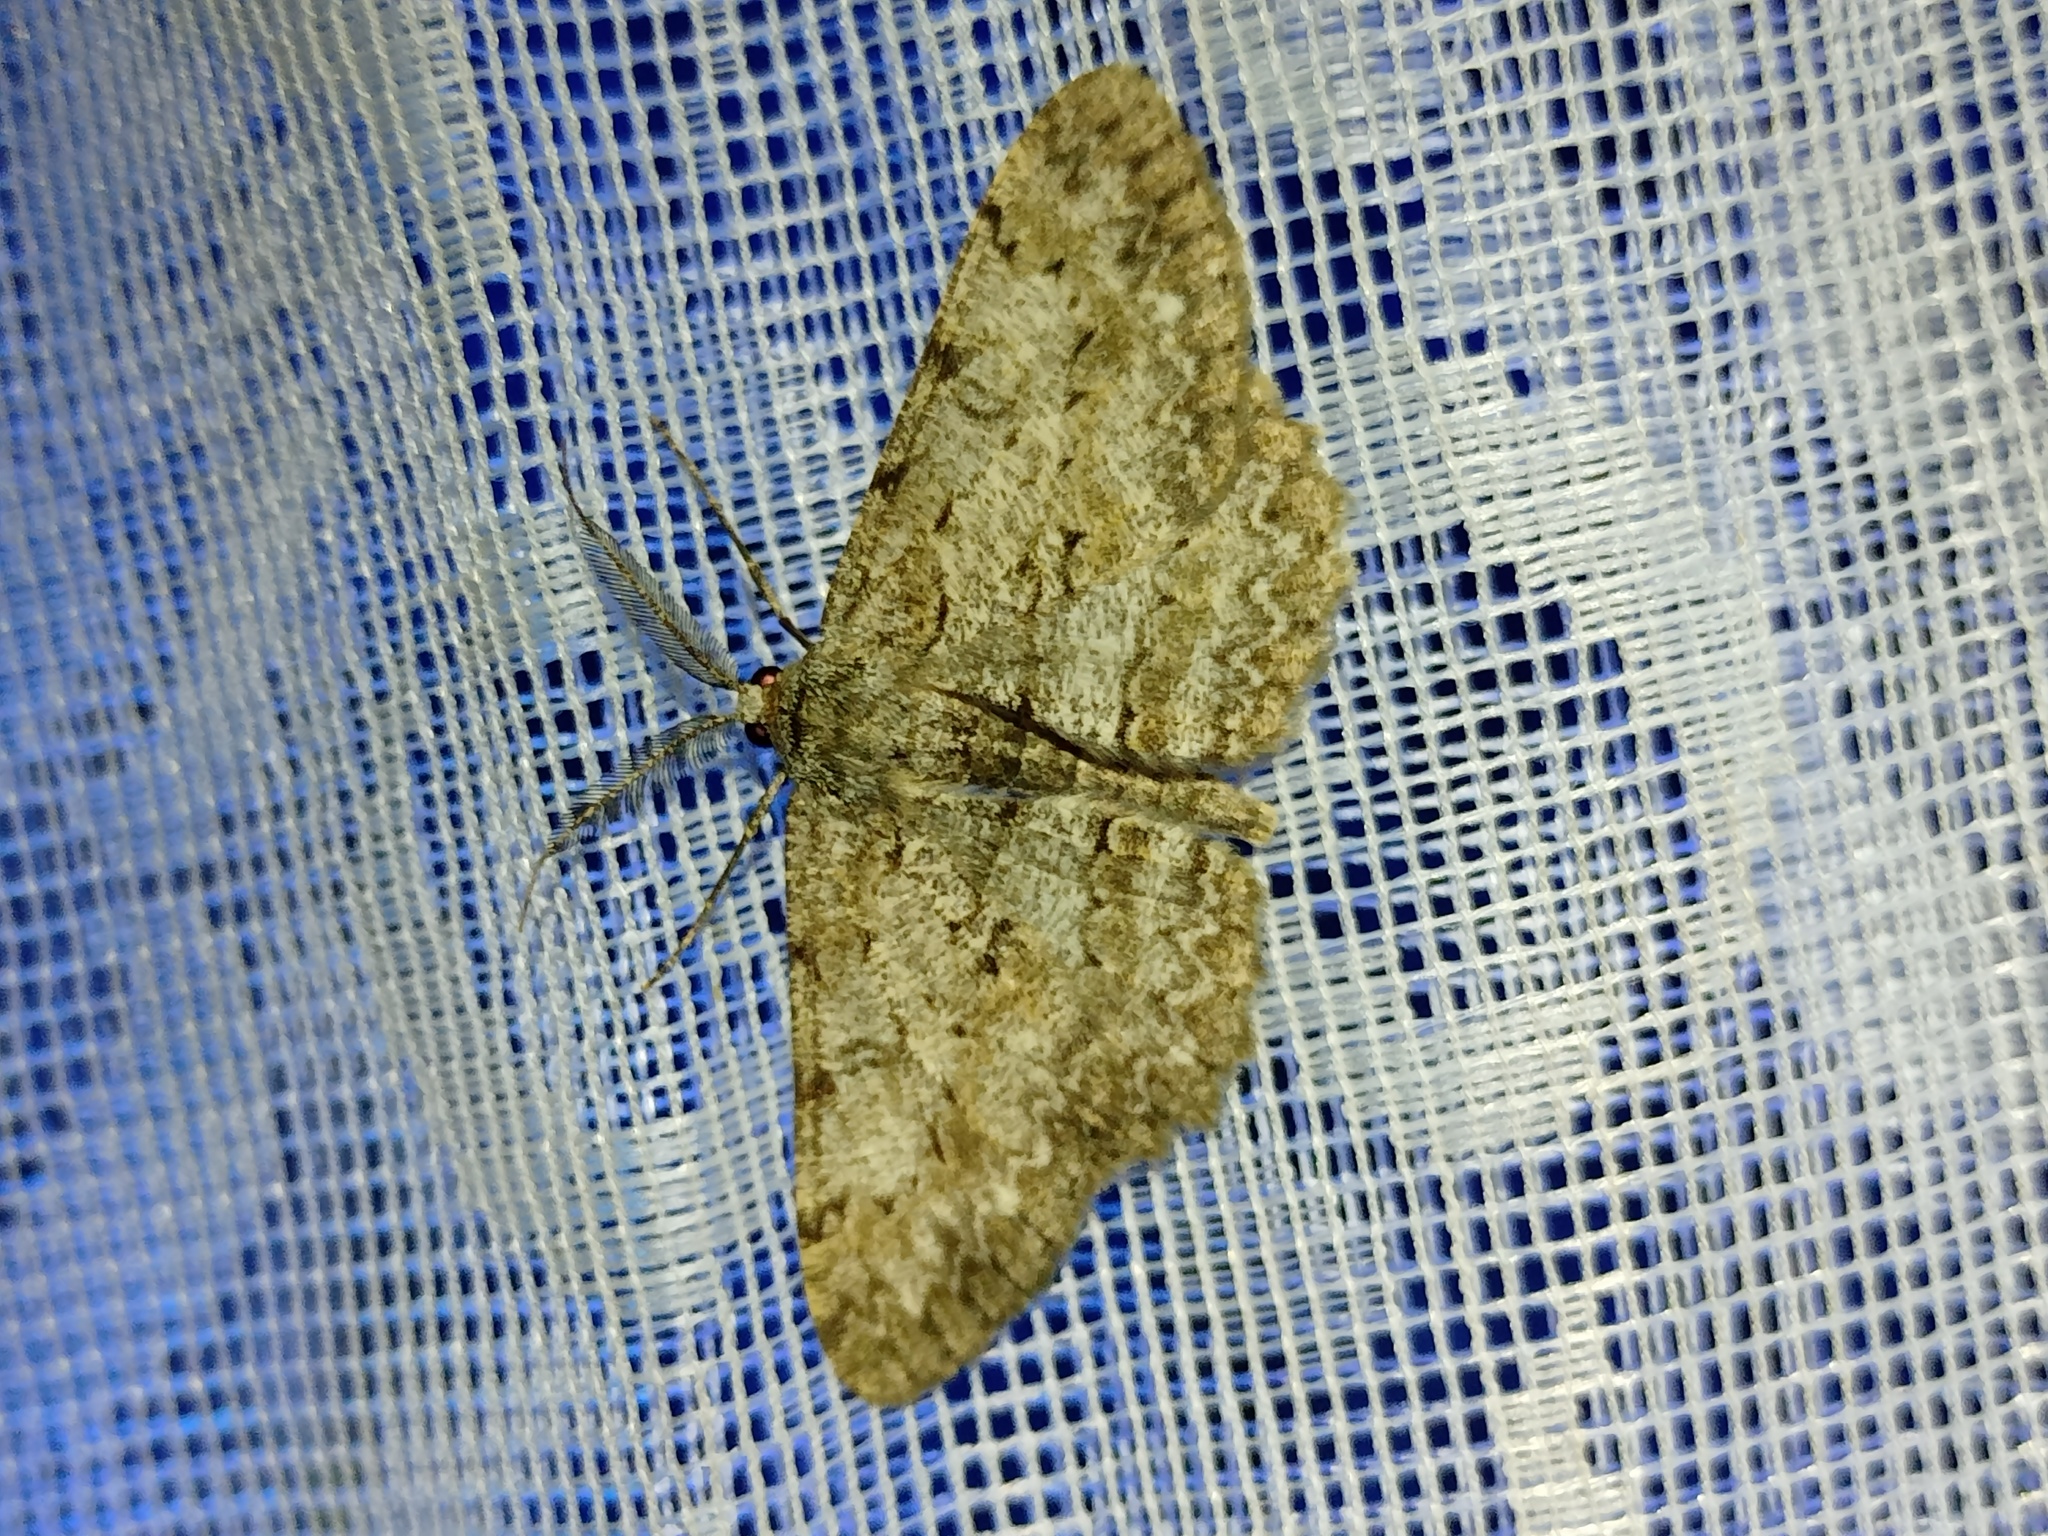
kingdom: Animalia
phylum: Arthropoda
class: Insecta
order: Lepidoptera
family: Geometridae
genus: Hypomecis
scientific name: Hypomecis punctinalis
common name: Pale oak beauty
